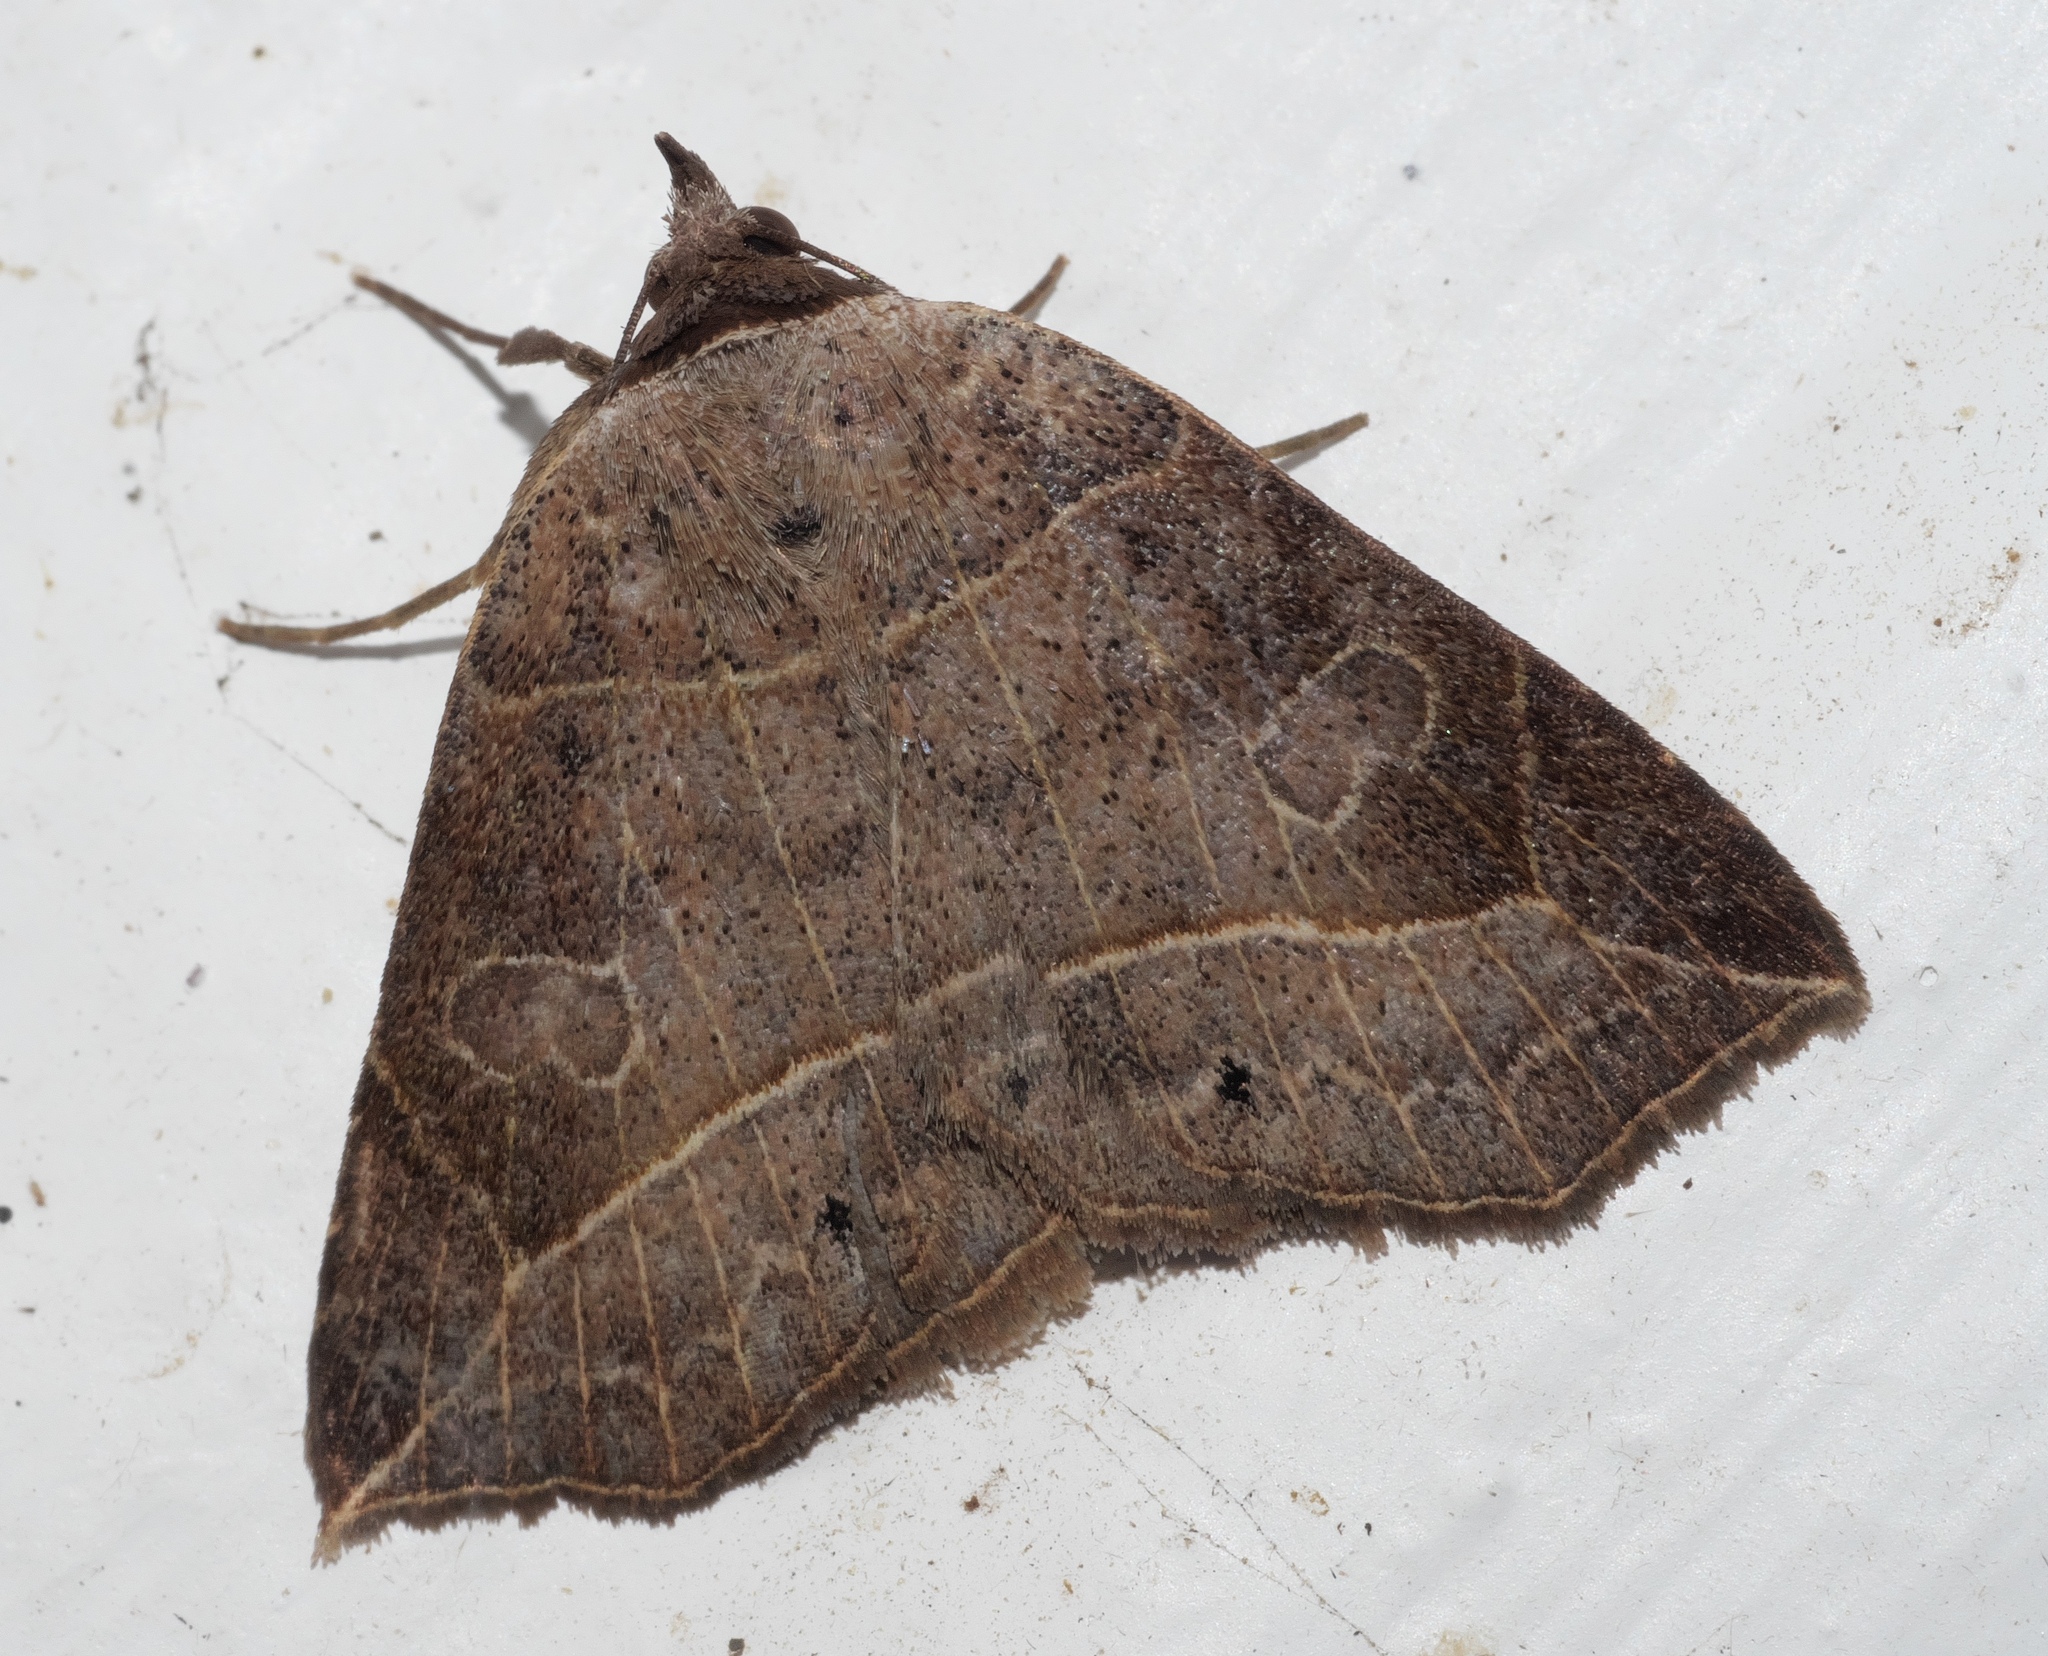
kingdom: Animalia
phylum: Arthropoda
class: Insecta
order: Lepidoptera
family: Erebidae
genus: Isogona
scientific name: Isogona tenuis
